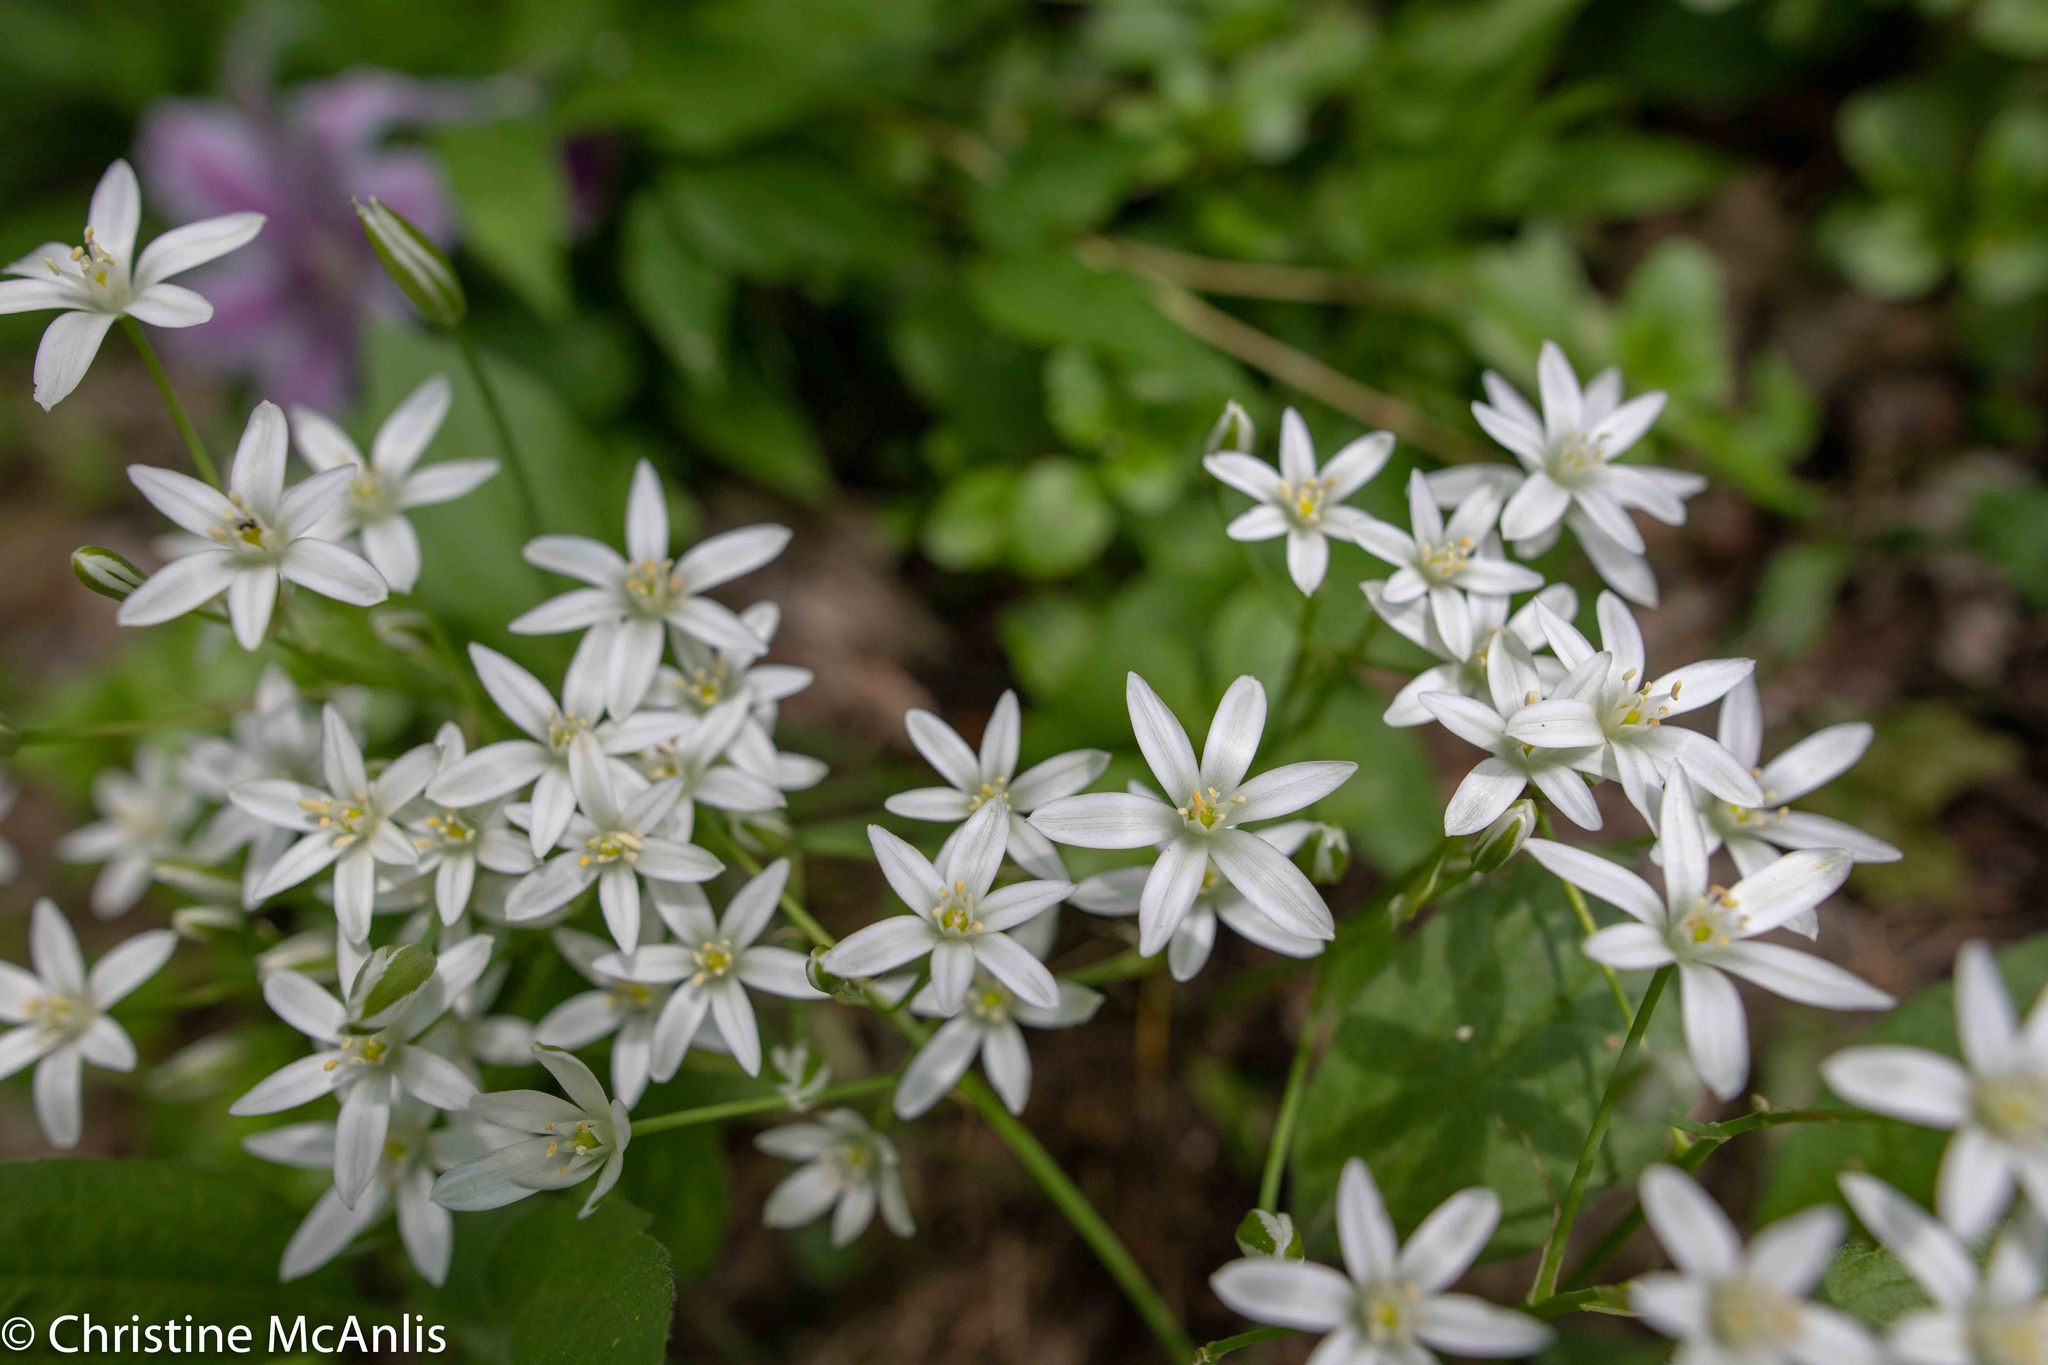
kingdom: Plantae
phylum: Tracheophyta
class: Liliopsida
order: Asparagales
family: Asparagaceae
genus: Ornithogalum
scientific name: Ornithogalum umbellatum
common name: Garden star-of-bethlehem
